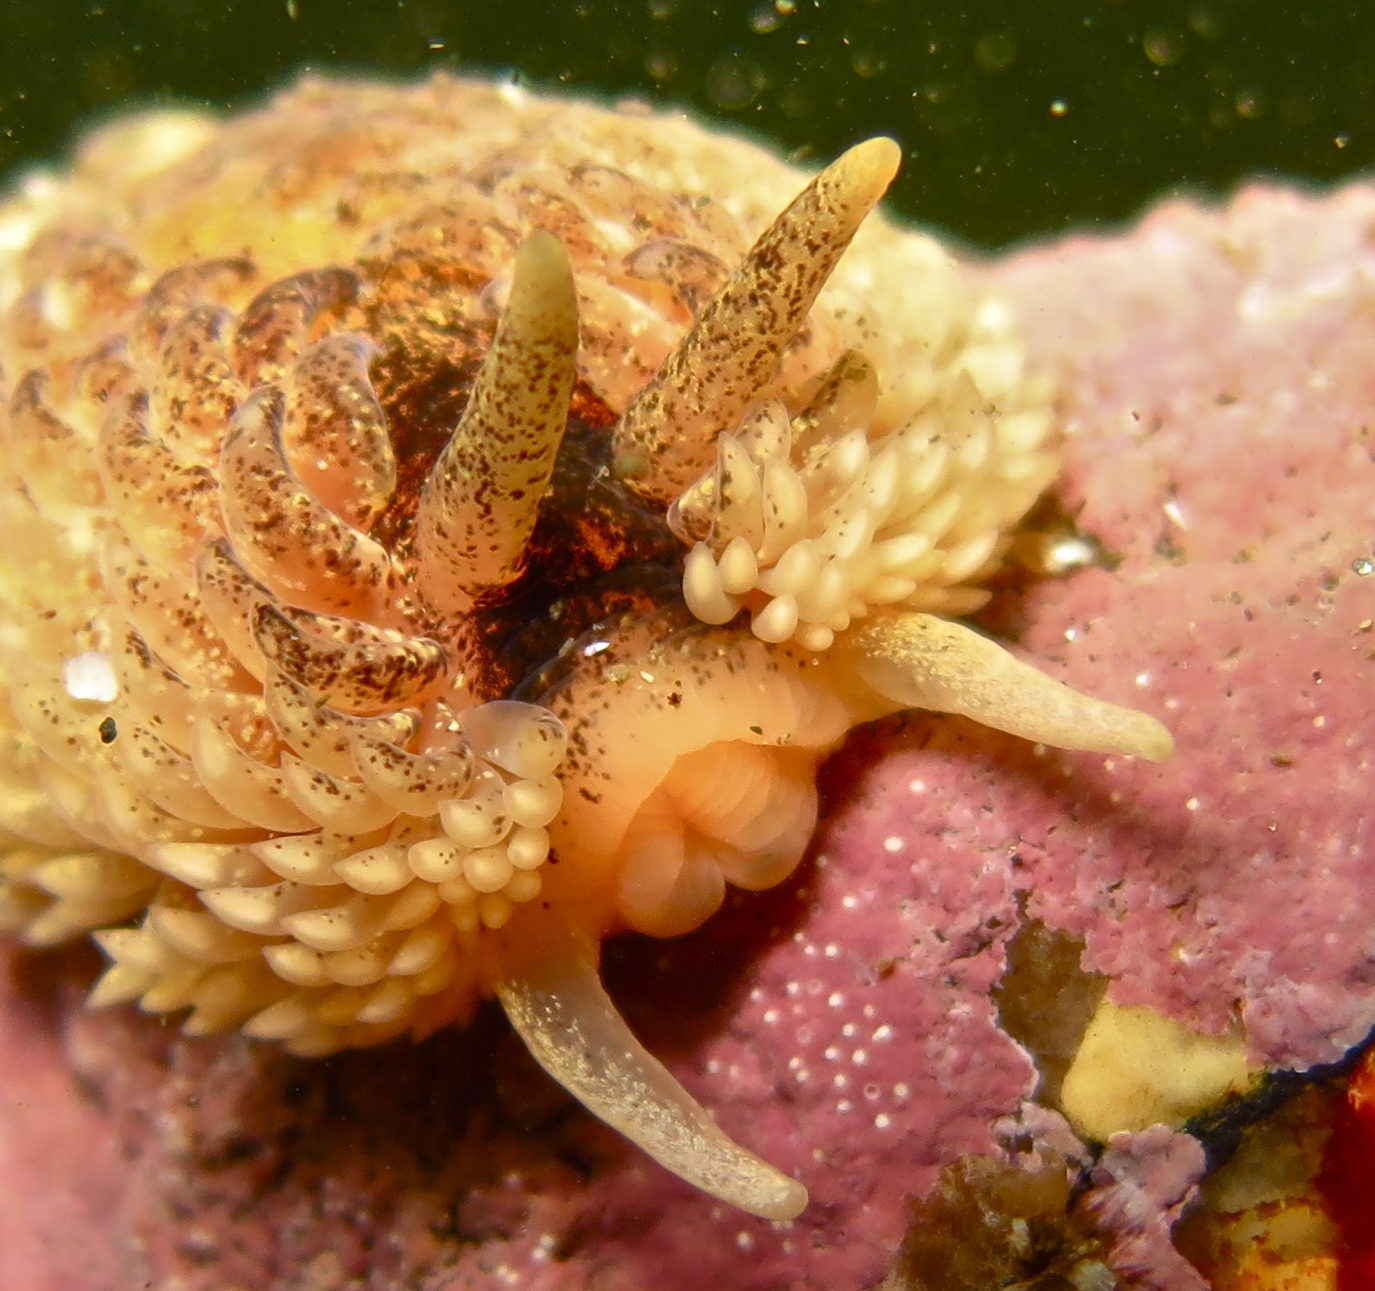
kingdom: Animalia
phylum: Mollusca
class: Gastropoda
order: Nudibranchia
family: Aeolidiidae
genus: Aeolidia
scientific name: Aeolidia papillosa
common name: Common grey sea slug
